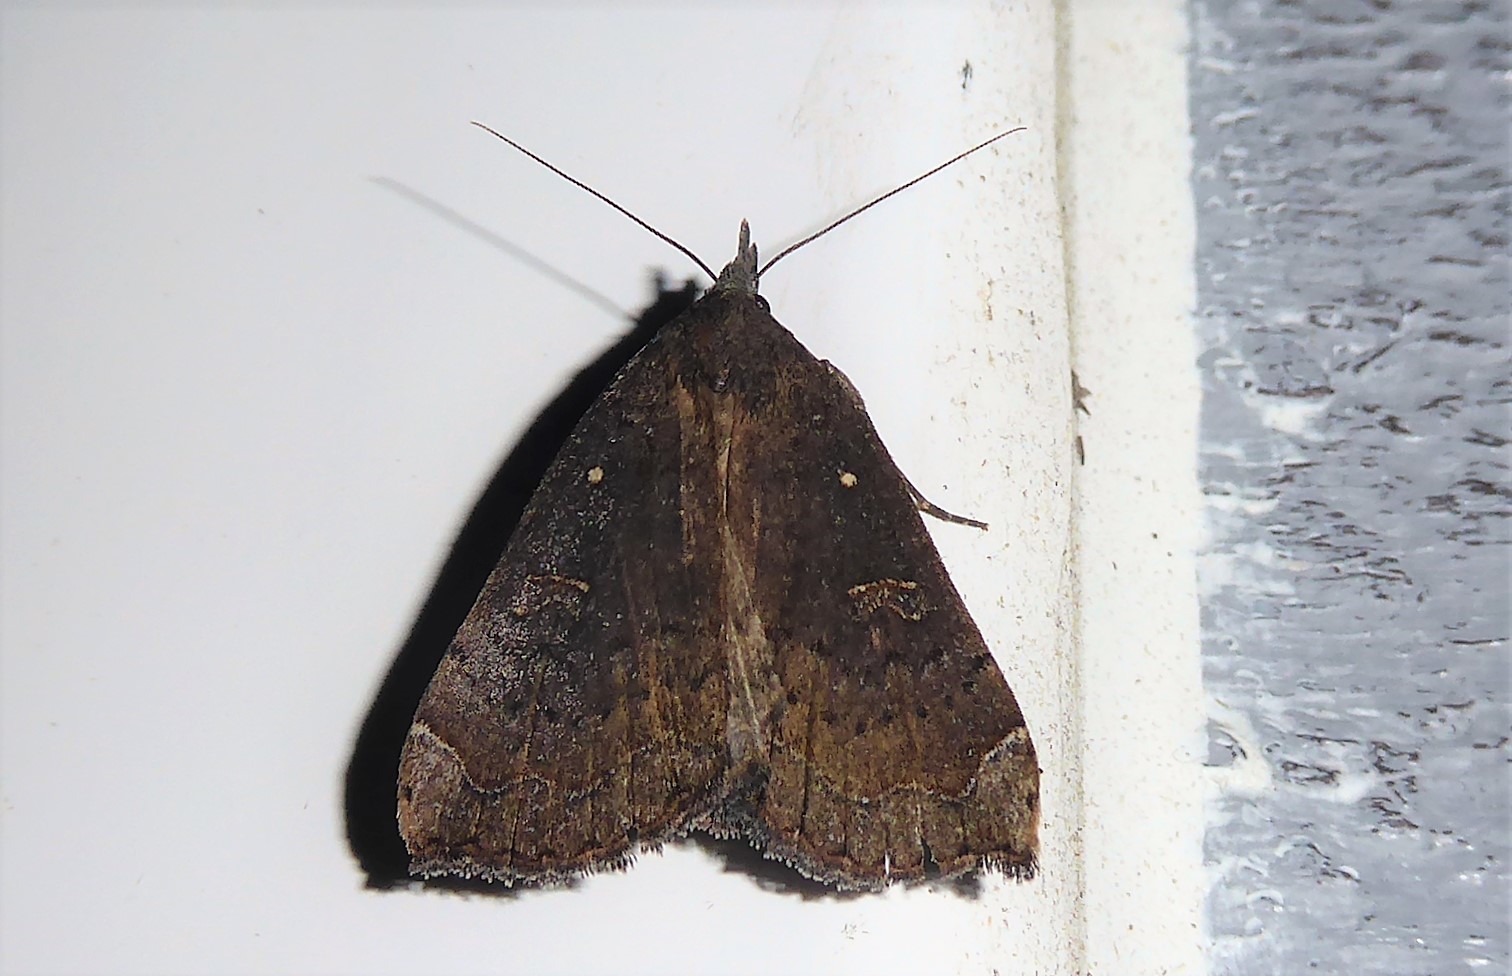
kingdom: Animalia
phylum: Arthropoda
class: Insecta
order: Lepidoptera
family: Erebidae
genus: Rhapsa
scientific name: Rhapsa scotosialis
